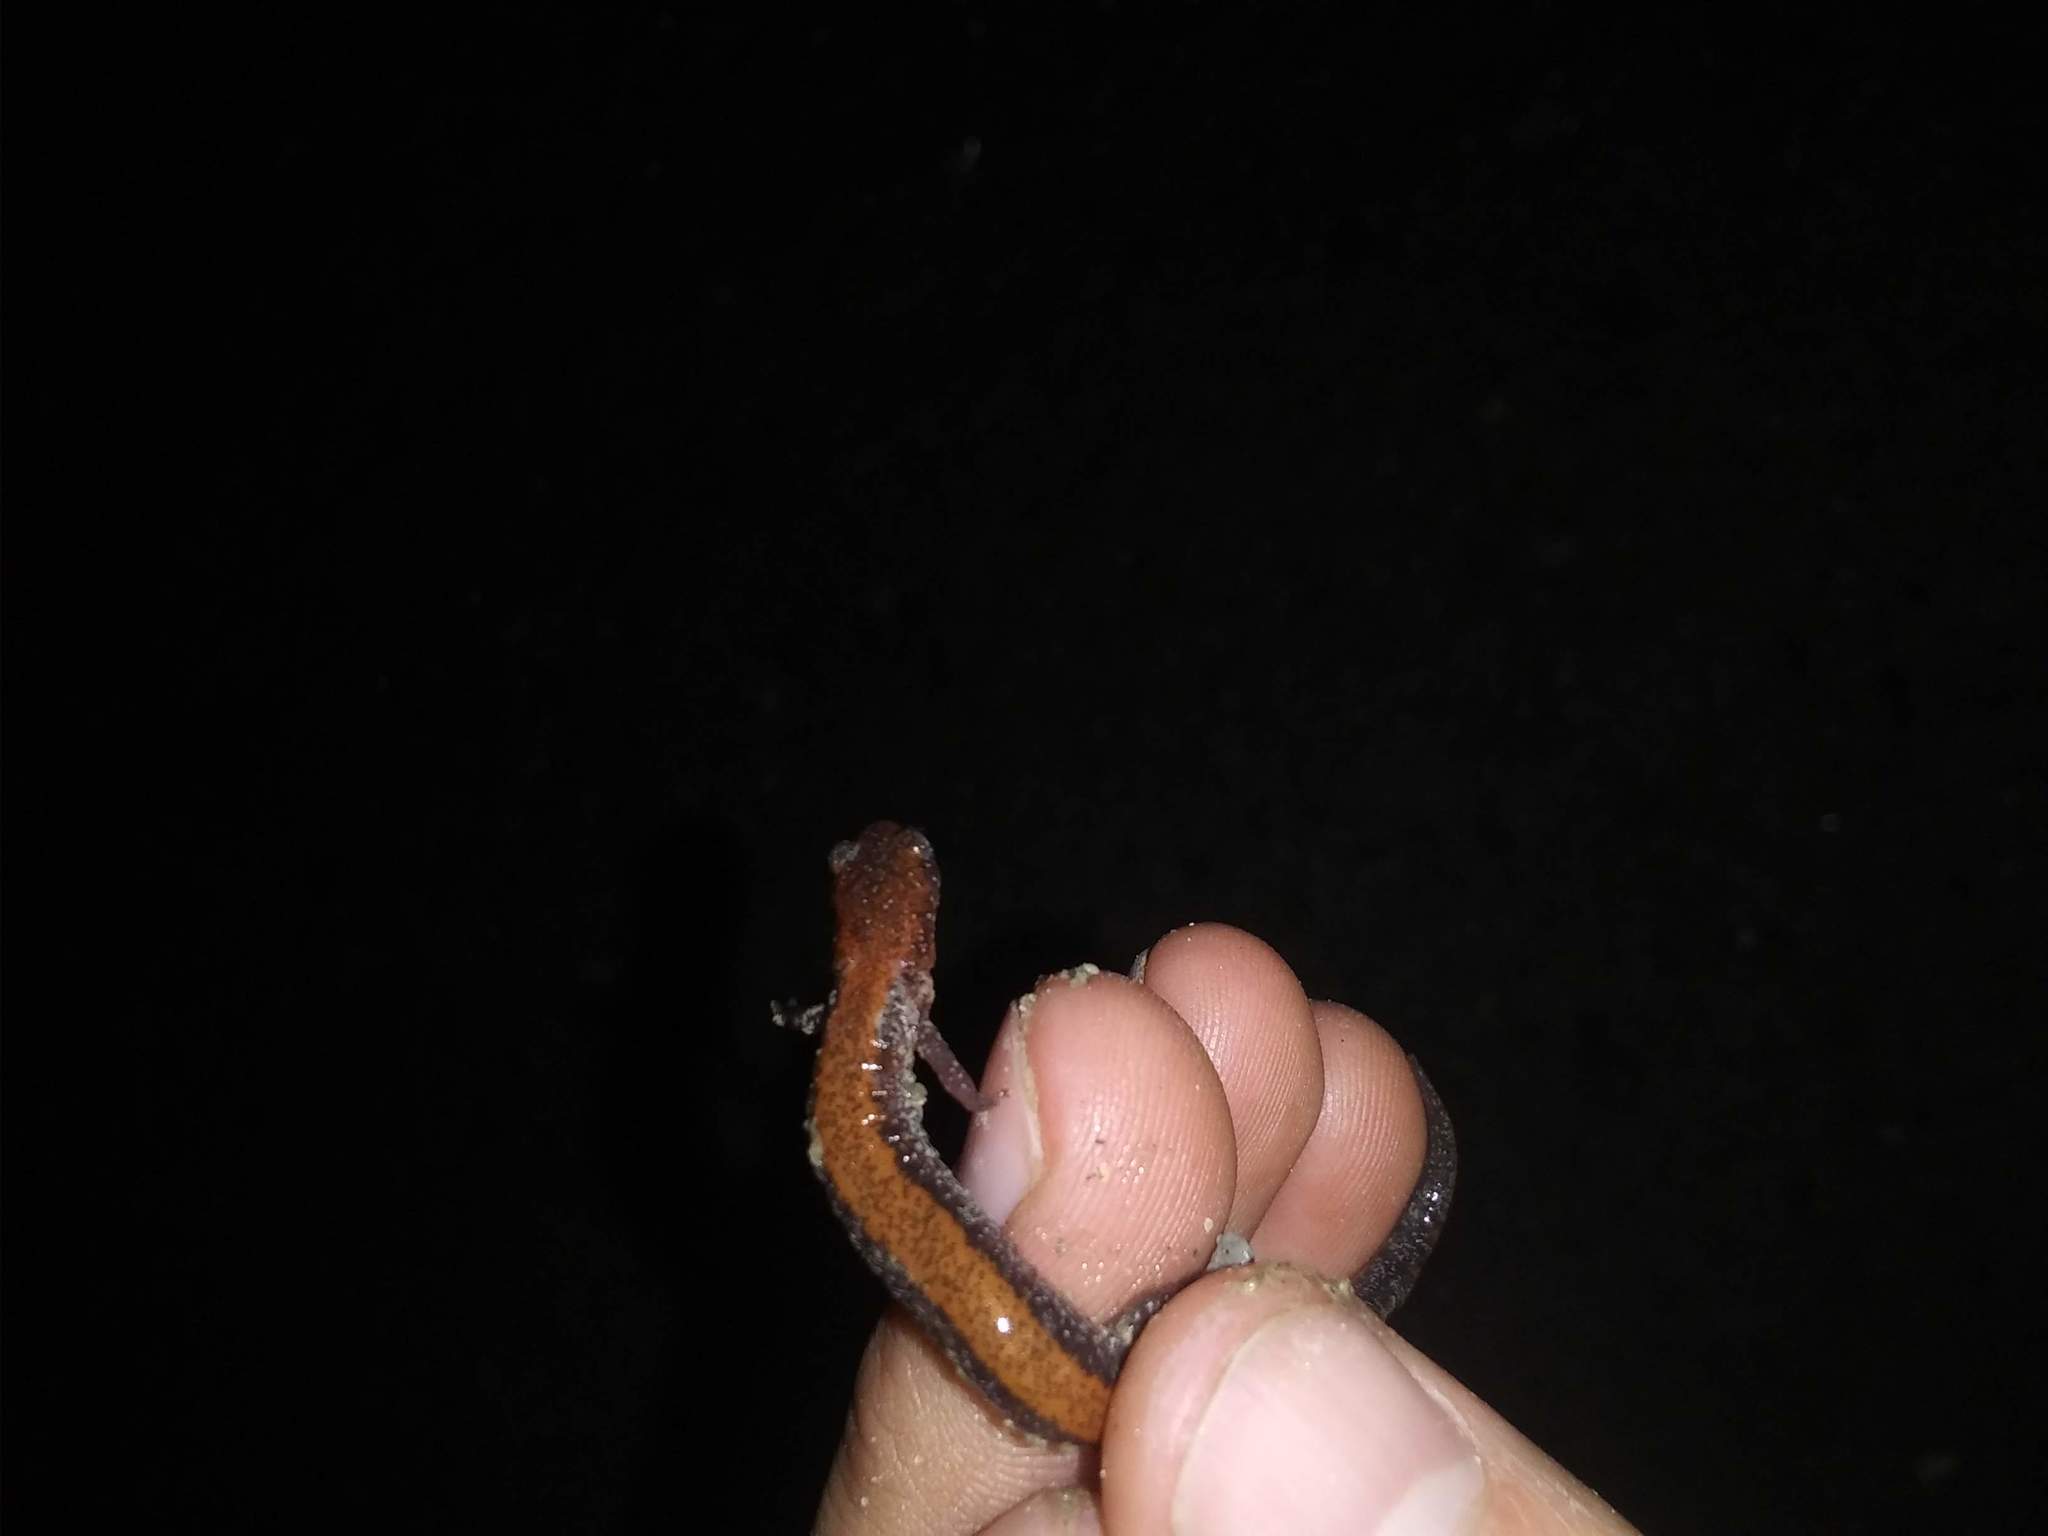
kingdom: Animalia
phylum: Chordata
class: Amphibia
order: Caudata
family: Plethodontidae
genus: Plethodon
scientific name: Plethodon cinereus
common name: Redback salamander
